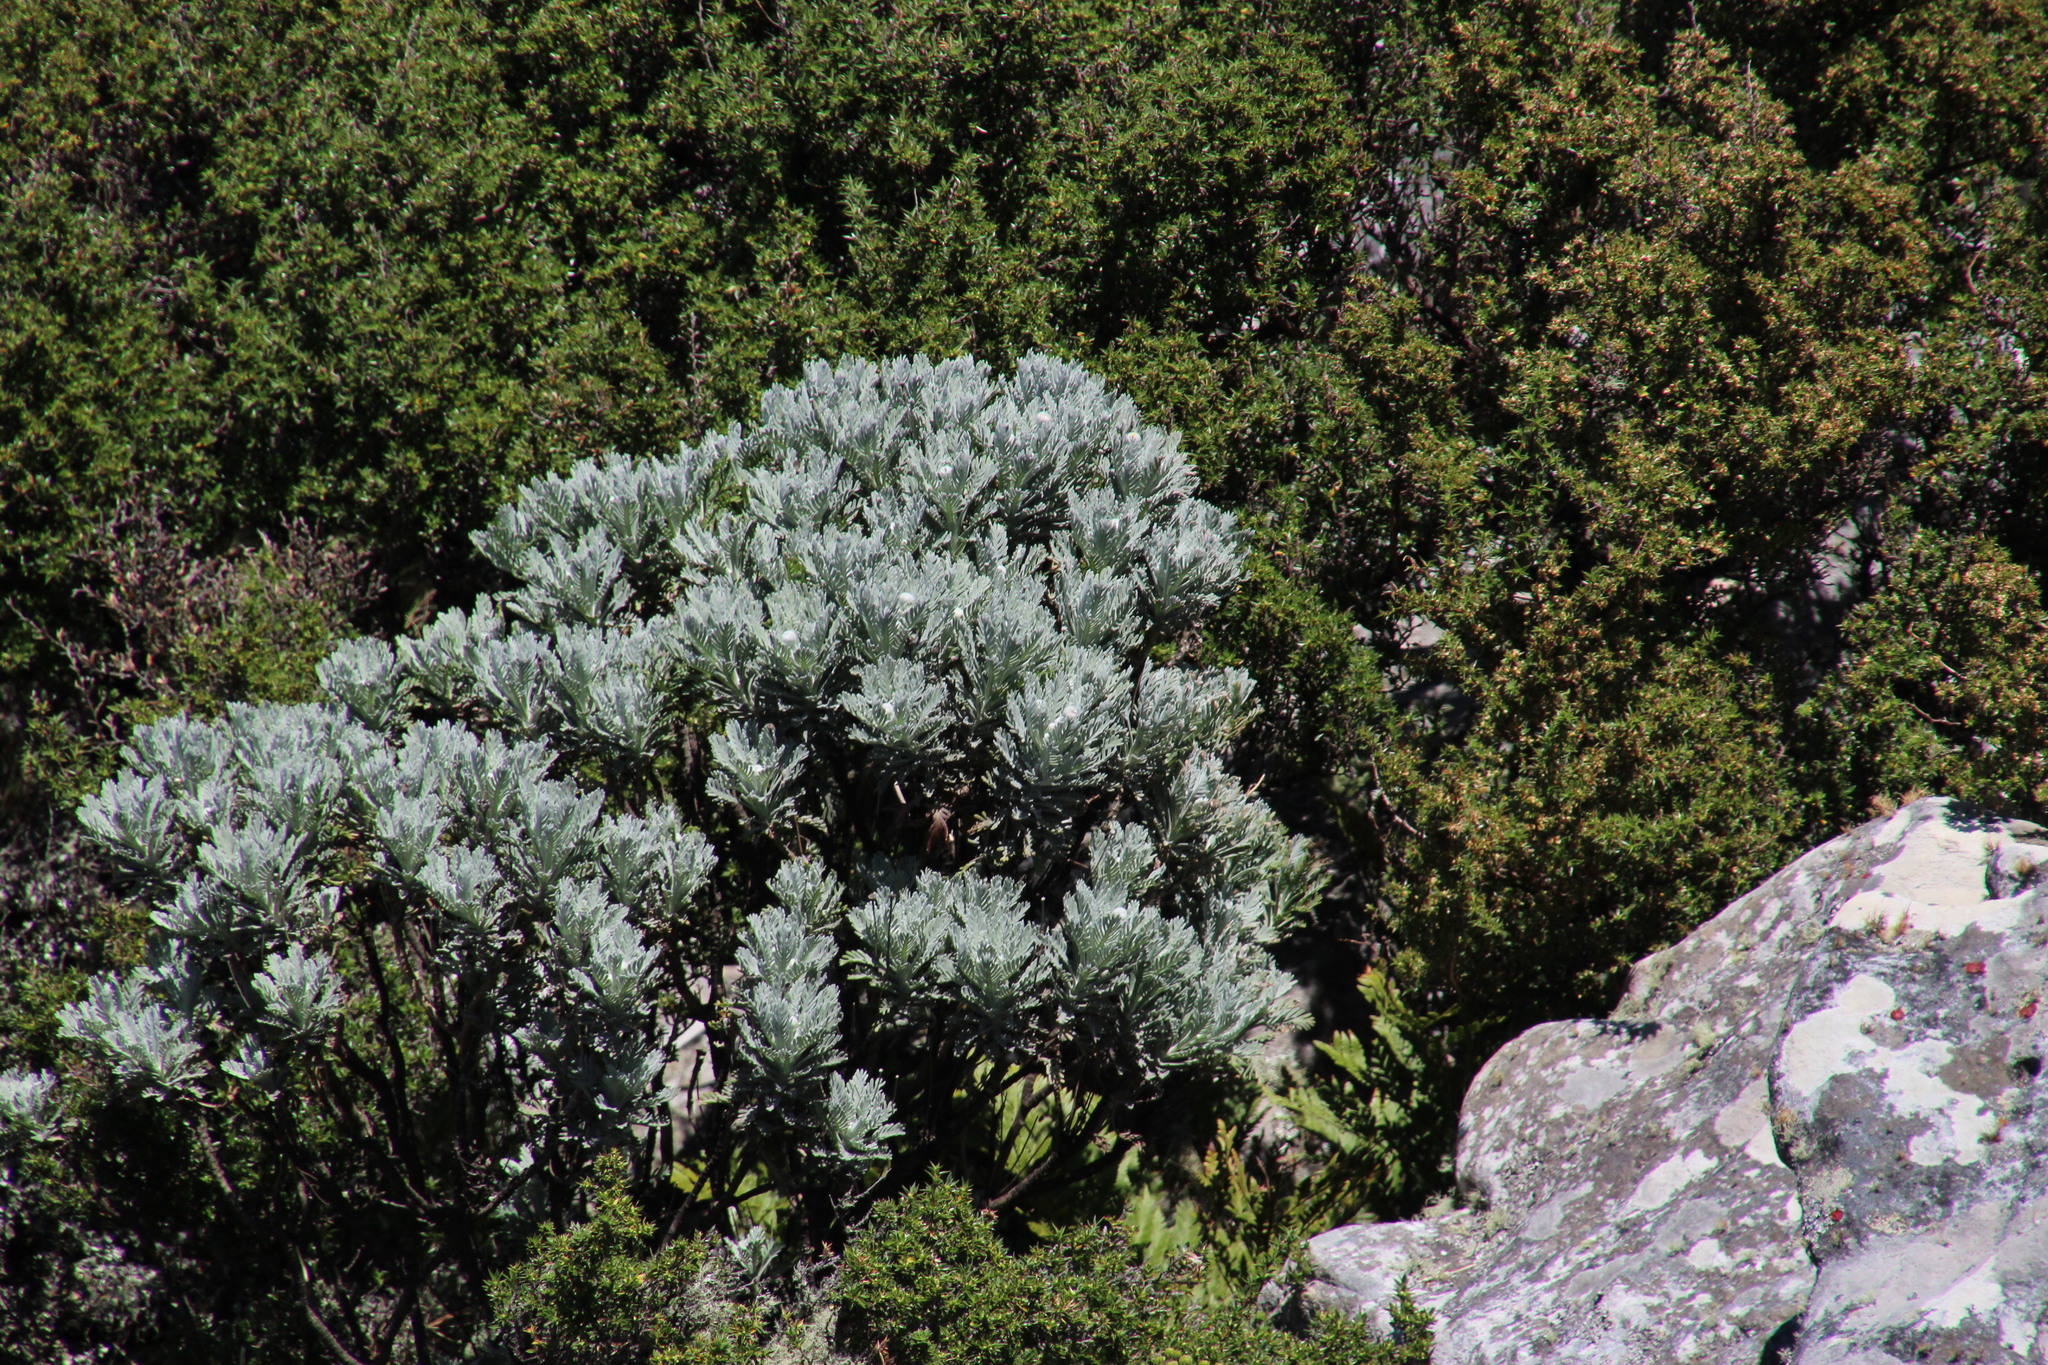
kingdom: Plantae
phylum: Tracheophyta
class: Magnoliopsida
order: Asterales
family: Asteraceae
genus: Euryops
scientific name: Euryops pectinatus
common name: Gray-leaf euryops
